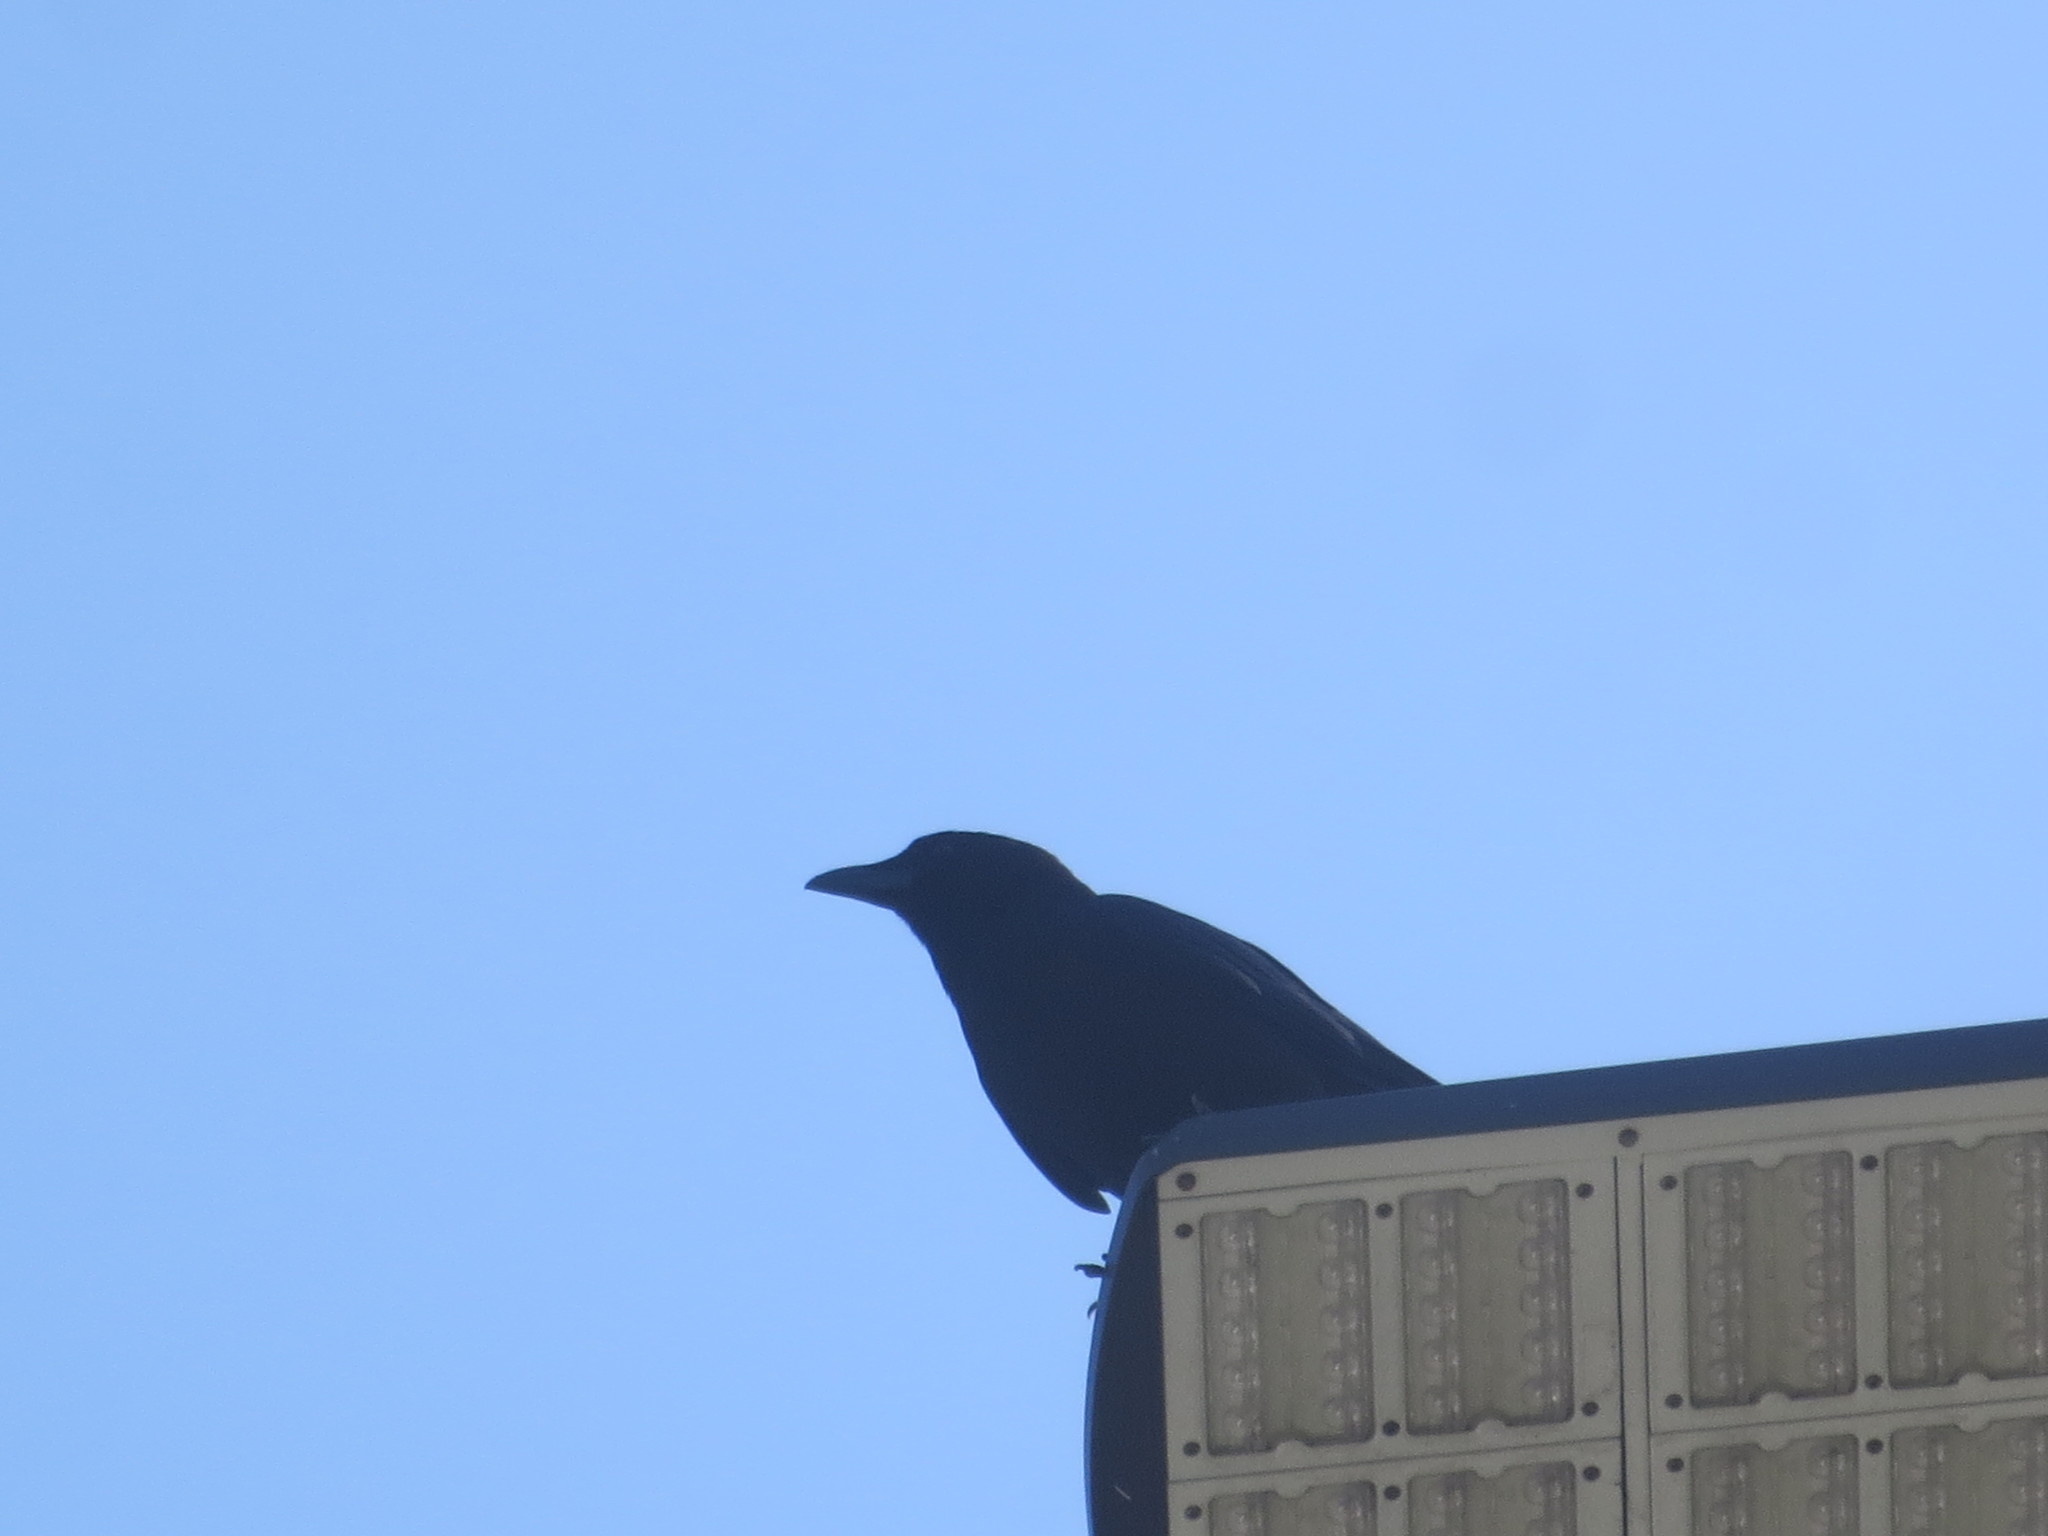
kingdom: Animalia
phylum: Chordata
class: Aves
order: Passeriformes
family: Corvidae
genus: Corvus
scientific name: Corvus ossifragus
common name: Fish crow
